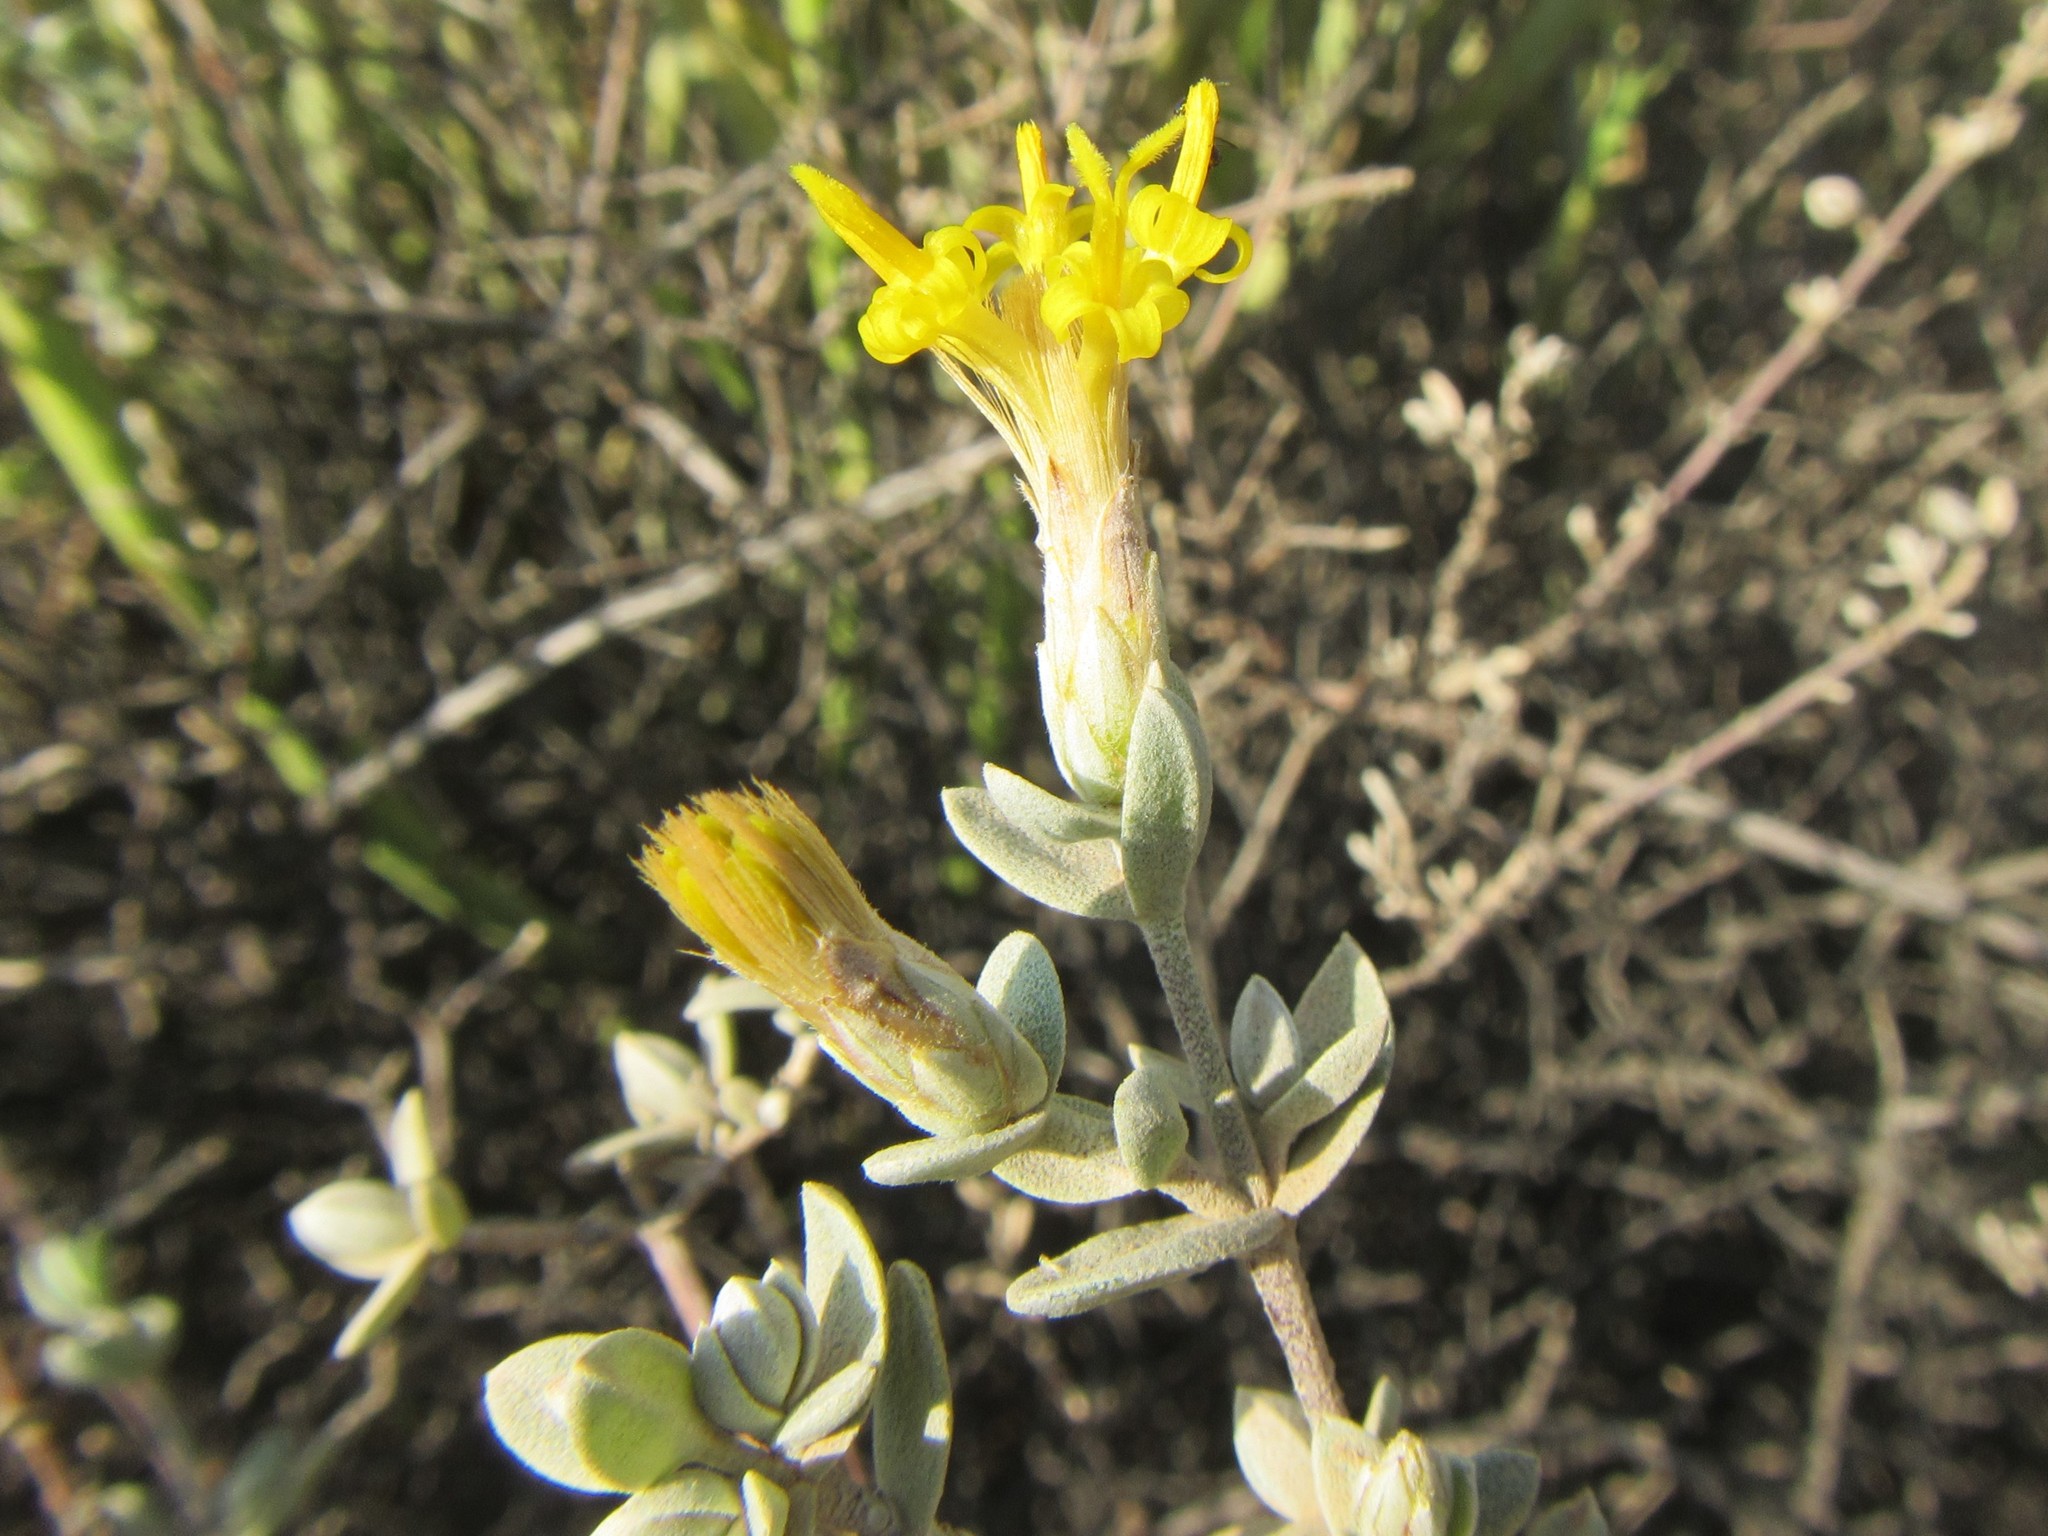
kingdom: Plantae
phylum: Tracheophyta
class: Magnoliopsida
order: Asterales
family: Asteraceae
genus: Pteronia
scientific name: Pteronia glauca
